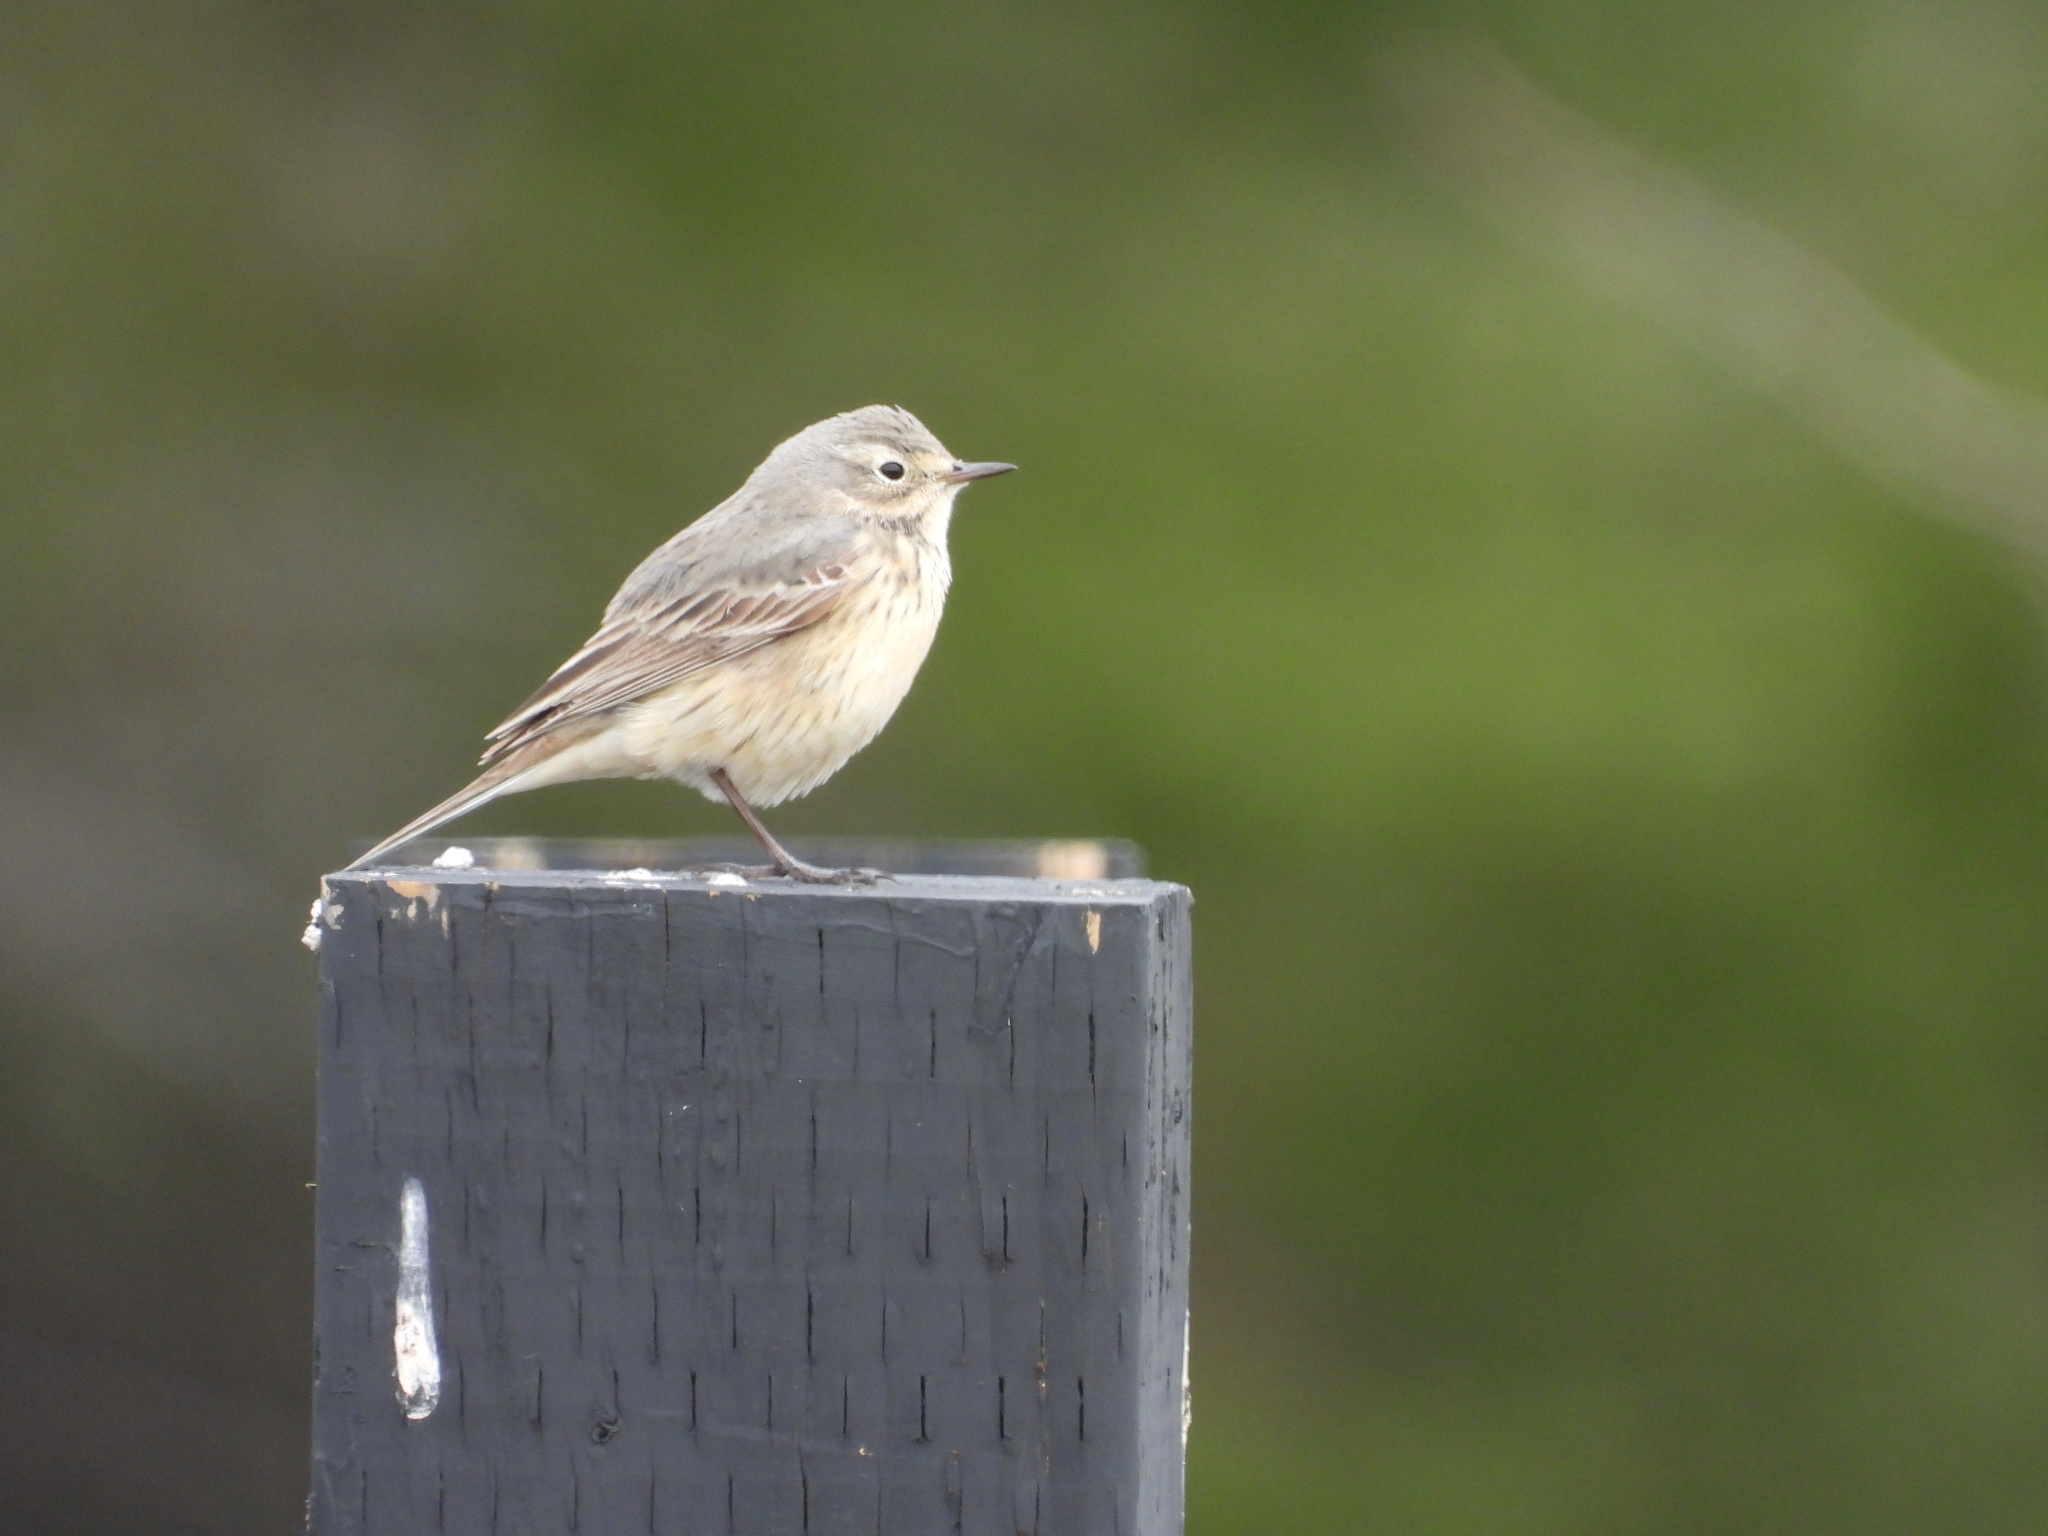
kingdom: Animalia
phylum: Chordata
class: Aves
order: Passeriformes
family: Motacillidae
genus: Anthus
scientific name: Anthus rubescens
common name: Buff-bellied pipit
